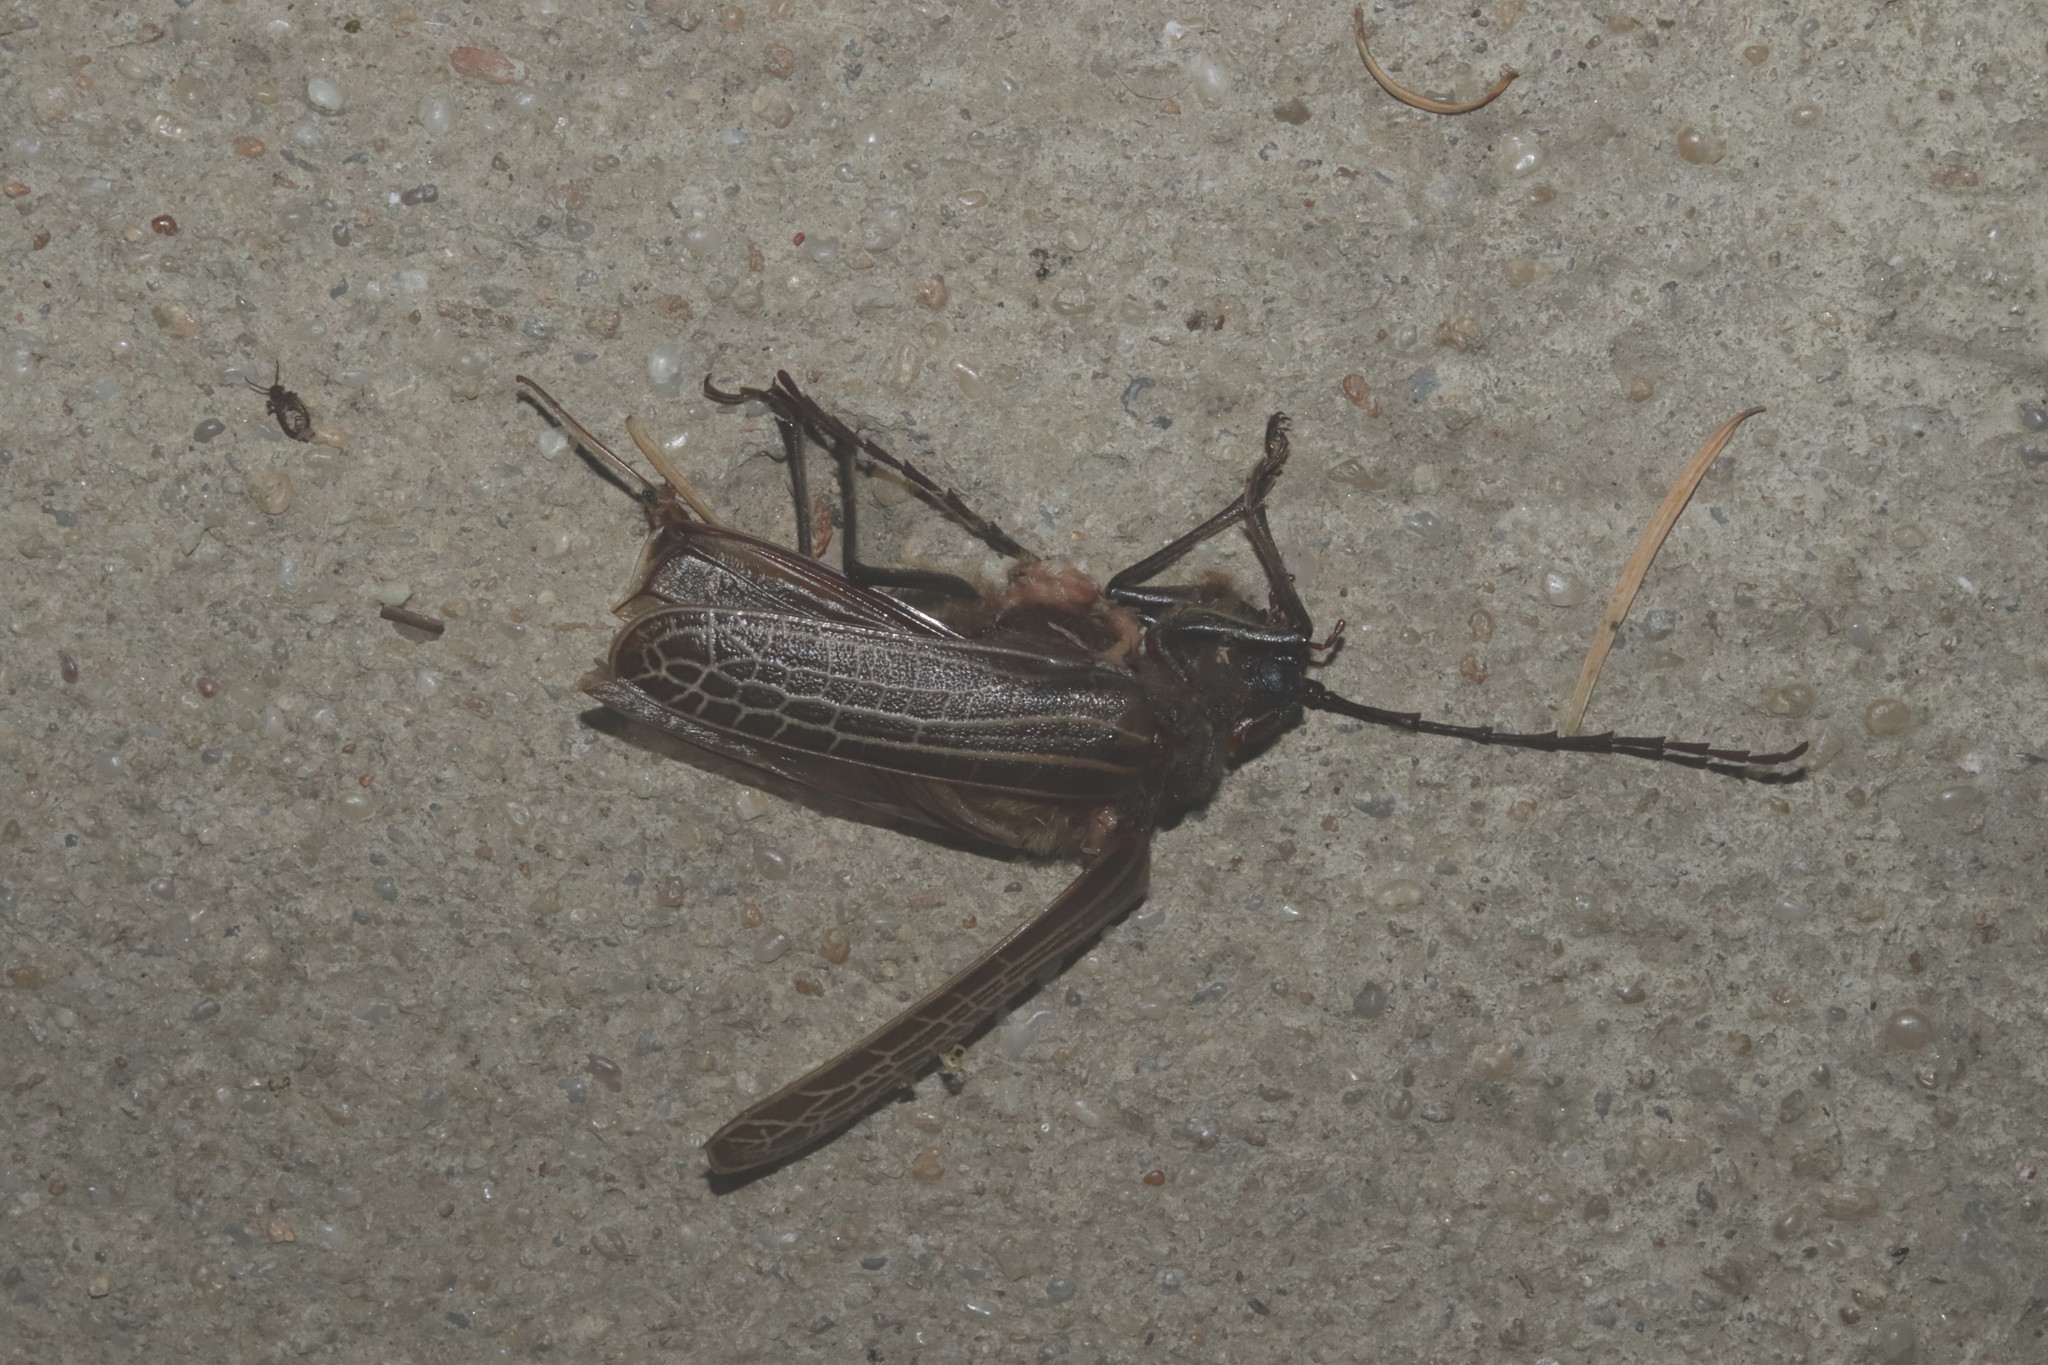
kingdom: Animalia
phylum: Arthropoda
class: Insecta
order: Coleoptera
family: Cerambycidae
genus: Prionoplus
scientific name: Prionoplus reticularis
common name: Huhu beetle
